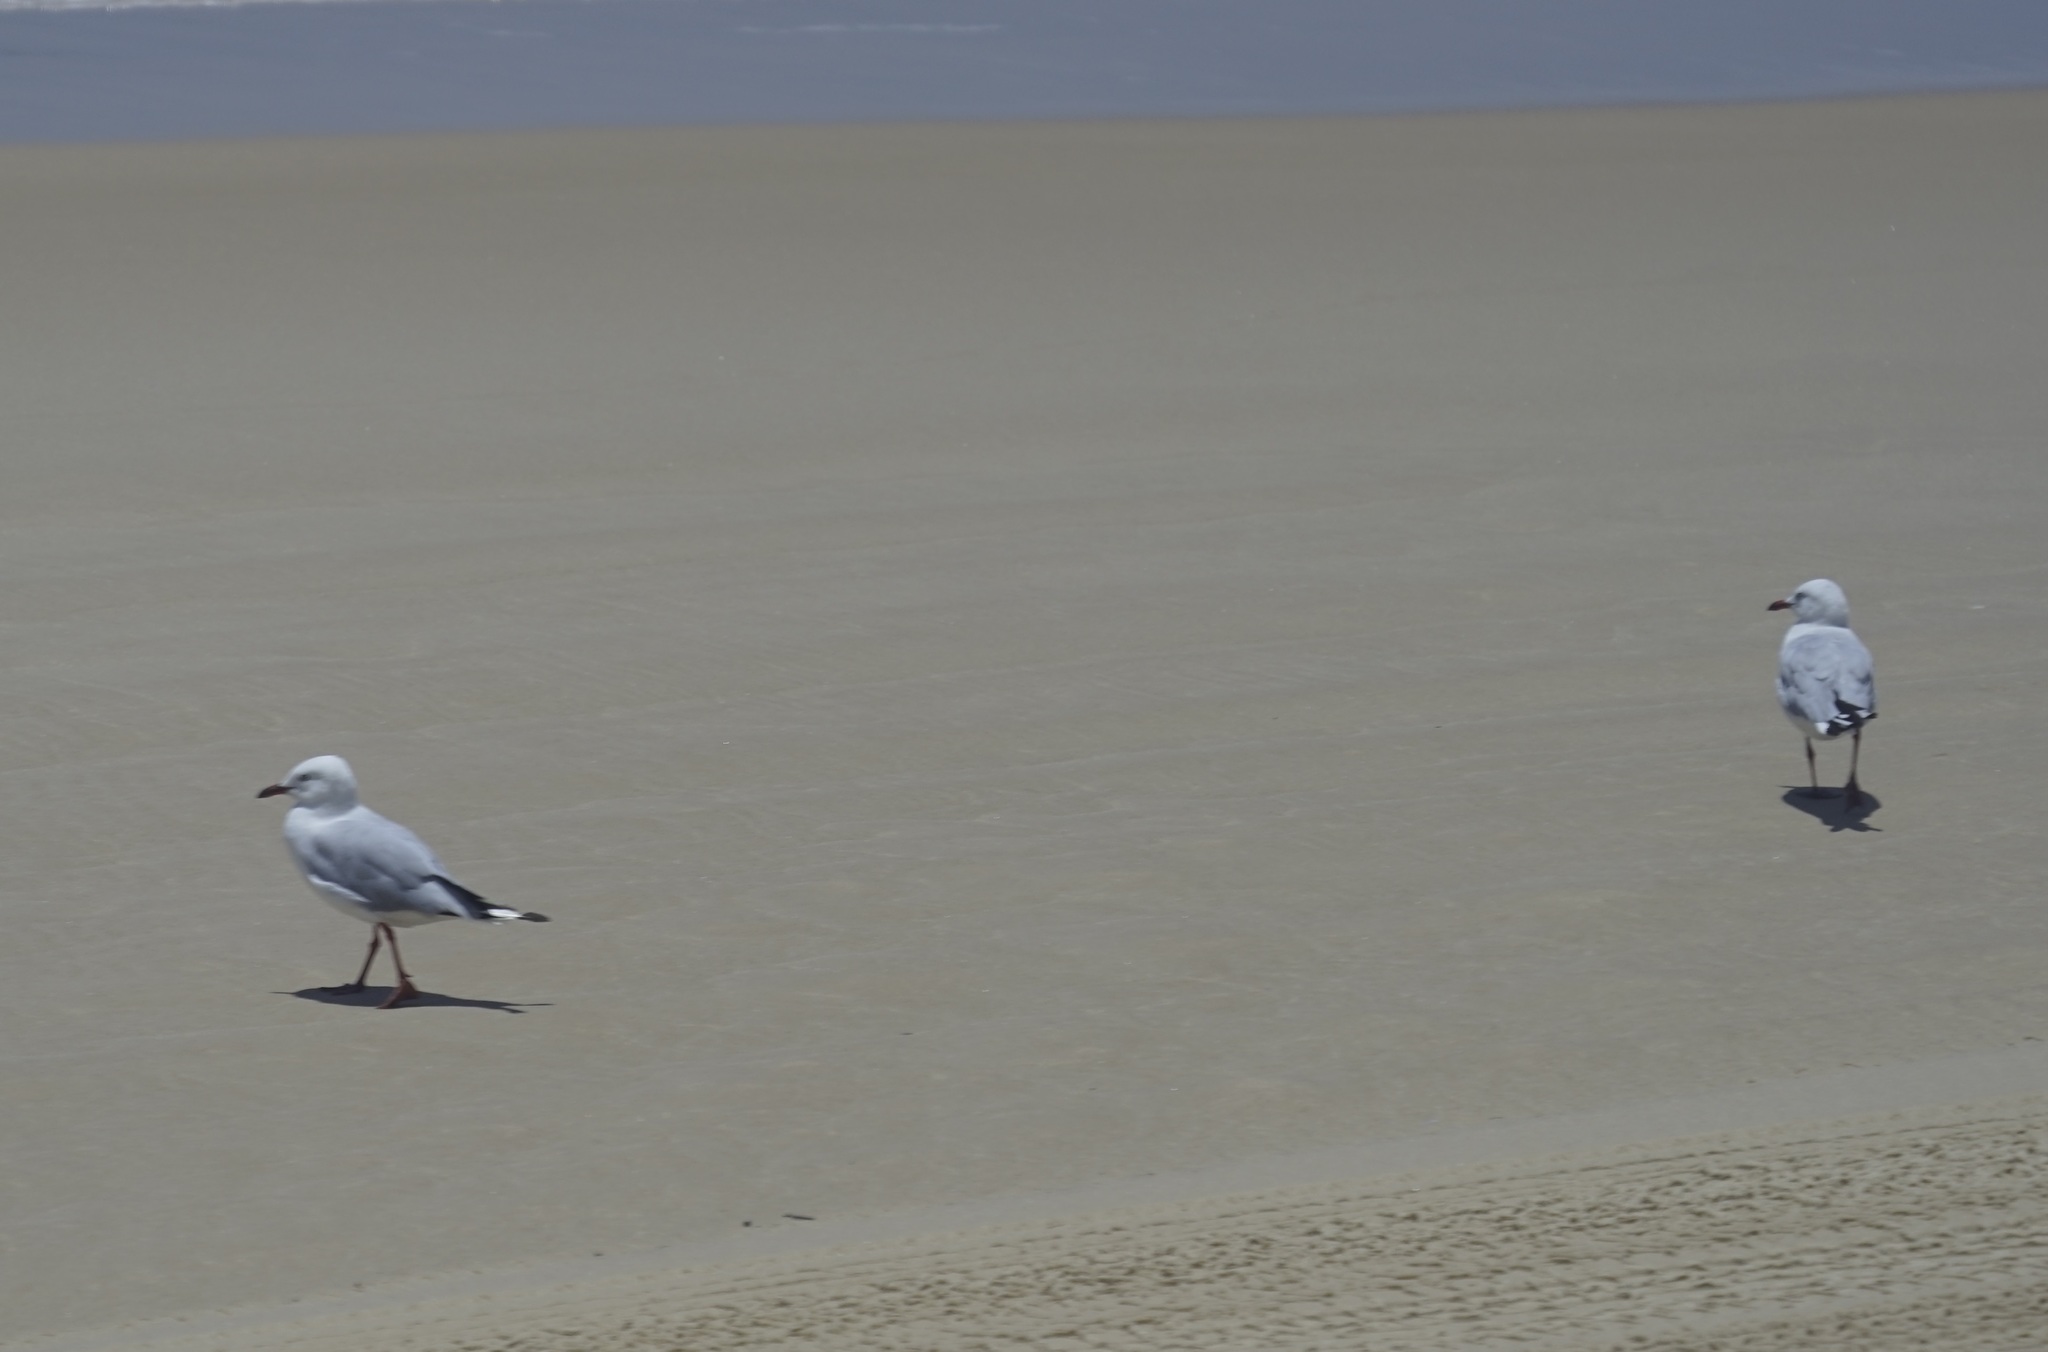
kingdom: Animalia
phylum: Chordata
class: Aves
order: Charadriiformes
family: Laridae
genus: Chroicocephalus
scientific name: Chroicocephalus novaehollandiae
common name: Silver gull
